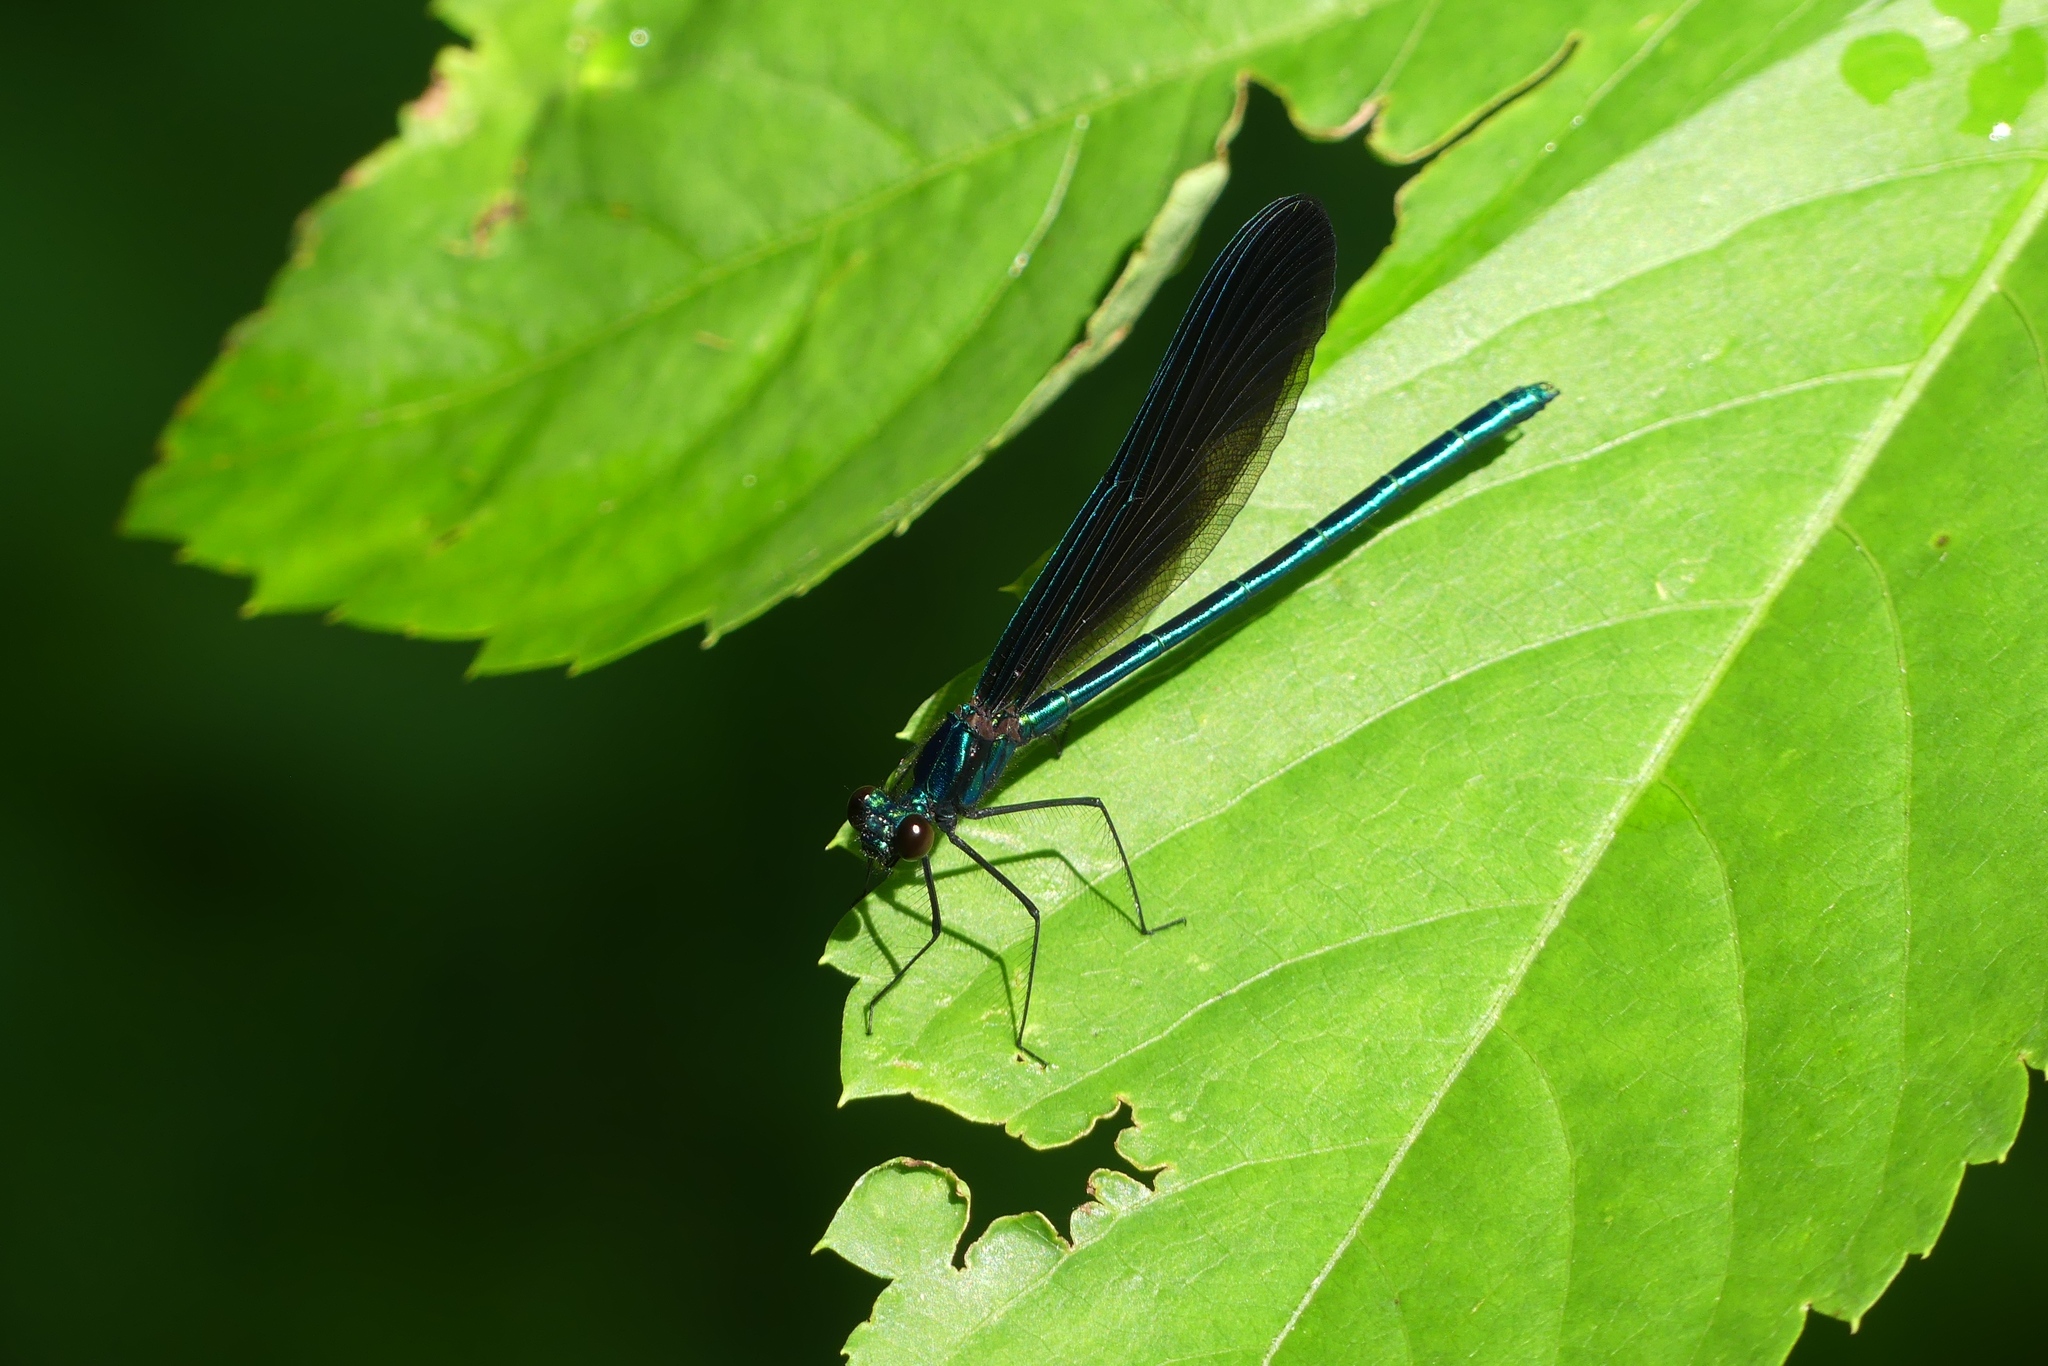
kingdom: Animalia
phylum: Arthropoda
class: Insecta
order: Odonata
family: Calopterygidae
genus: Calopteryx
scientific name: Calopteryx maculata
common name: Ebony jewelwing
